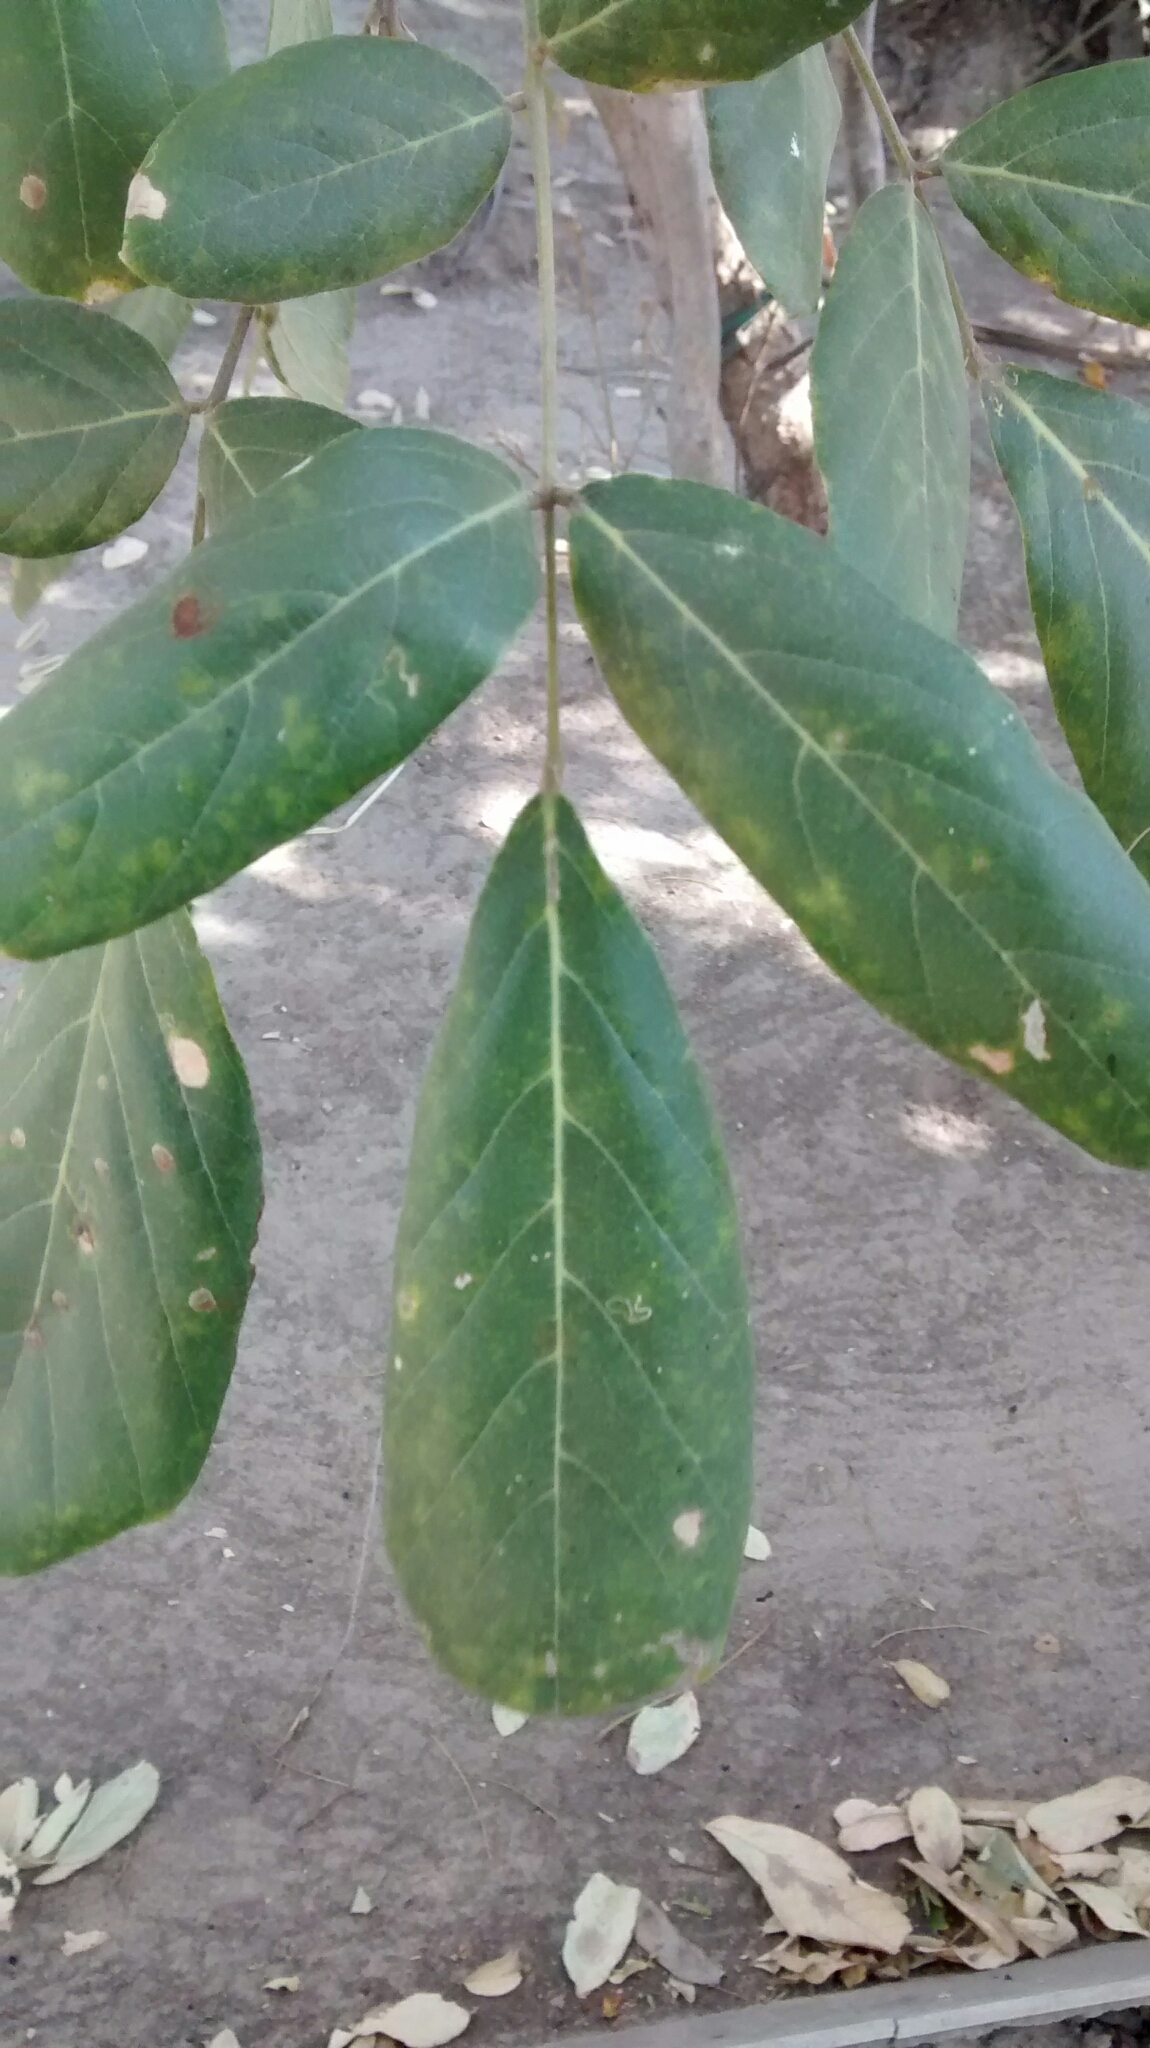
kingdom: Plantae
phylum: Tracheophyta
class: Magnoliopsida
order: Fabales
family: Fabaceae
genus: Philenoptera
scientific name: Philenoptera violacea
